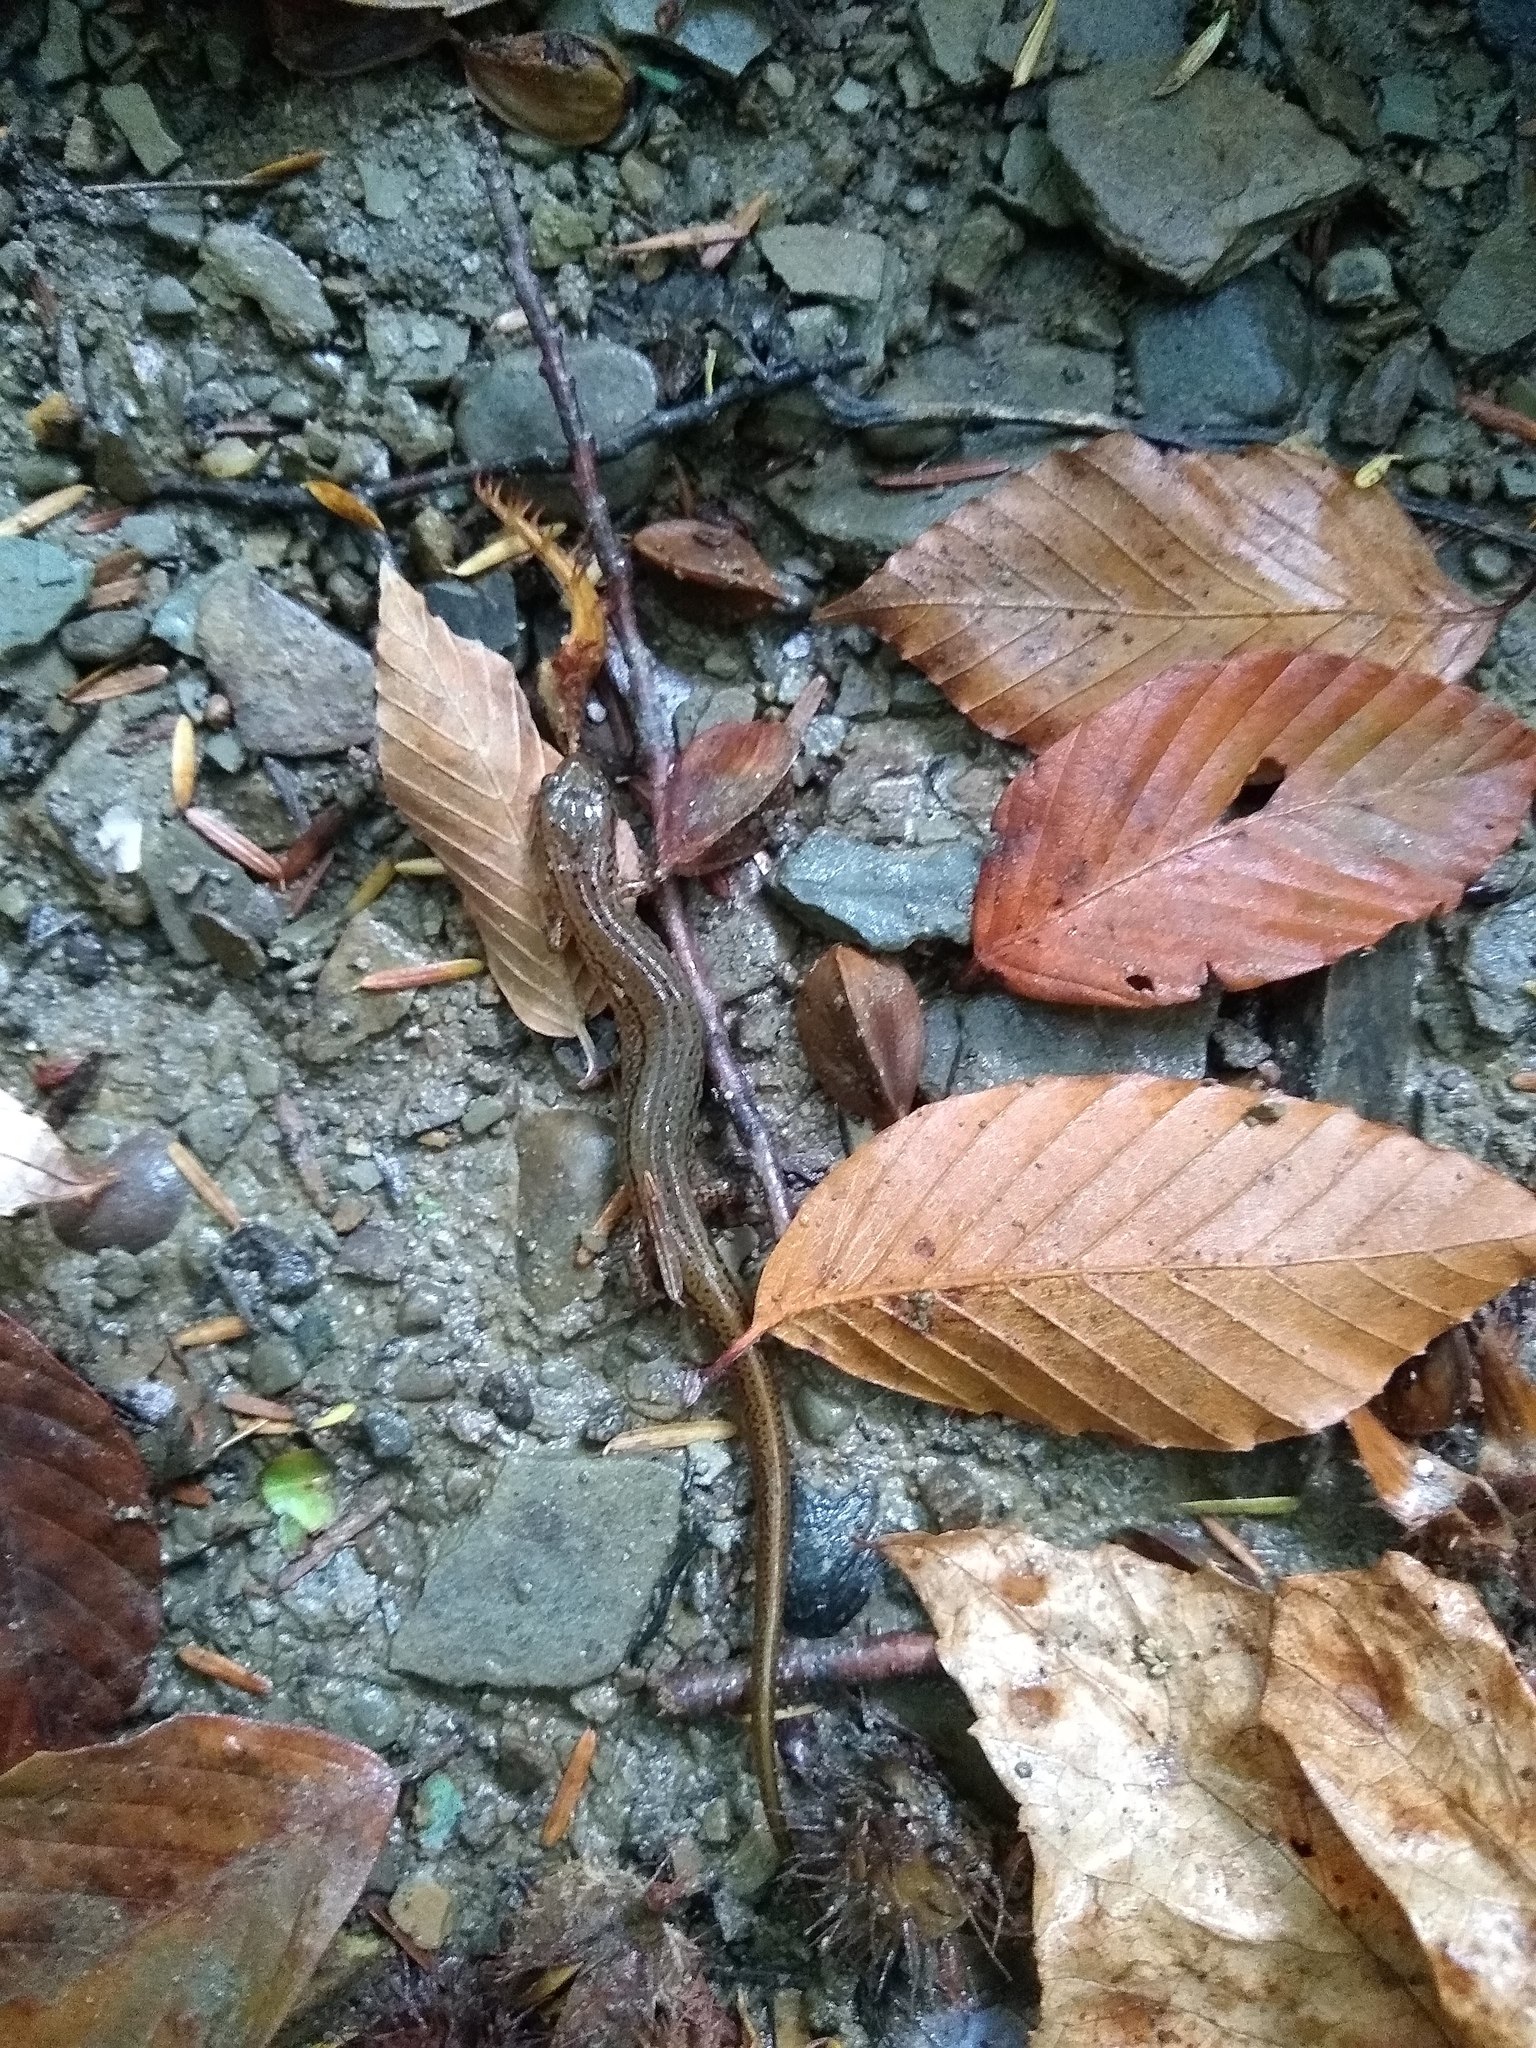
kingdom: Animalia
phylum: Chordata
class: Amphibia
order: Caudata
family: Plethodontidae
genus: Eurycea
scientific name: Eurycea bislineata
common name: Northern two-lined salamander
